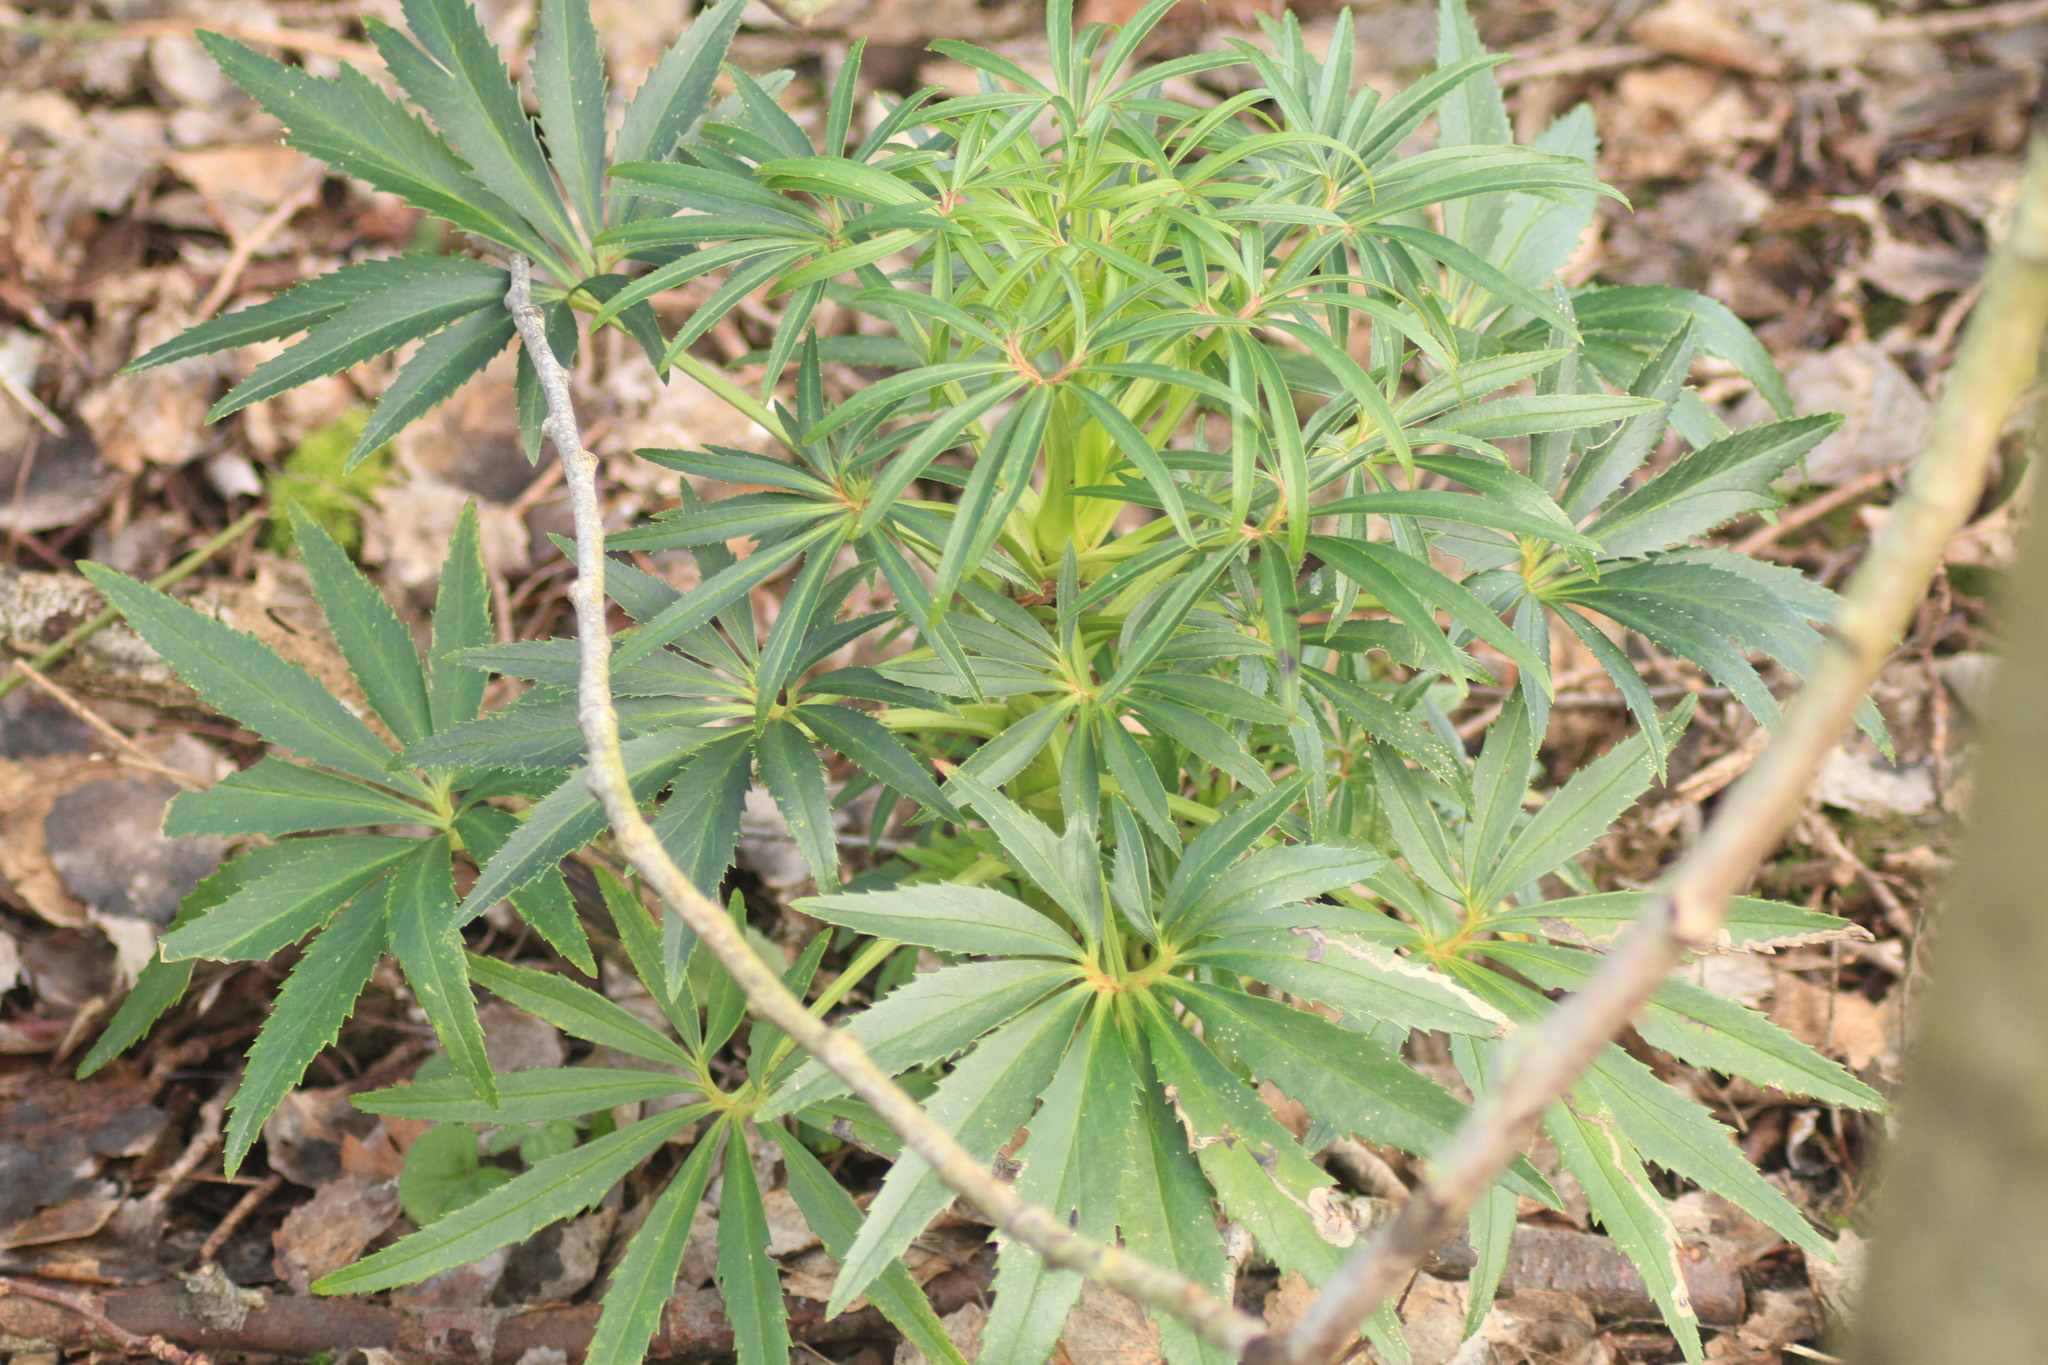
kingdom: Plantae
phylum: Tracheophyta
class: Magnoliopsida
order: Ranunculales
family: Ranunculaceae
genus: Helleborus
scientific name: Helleborus foetidus
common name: Stinking hellebore
